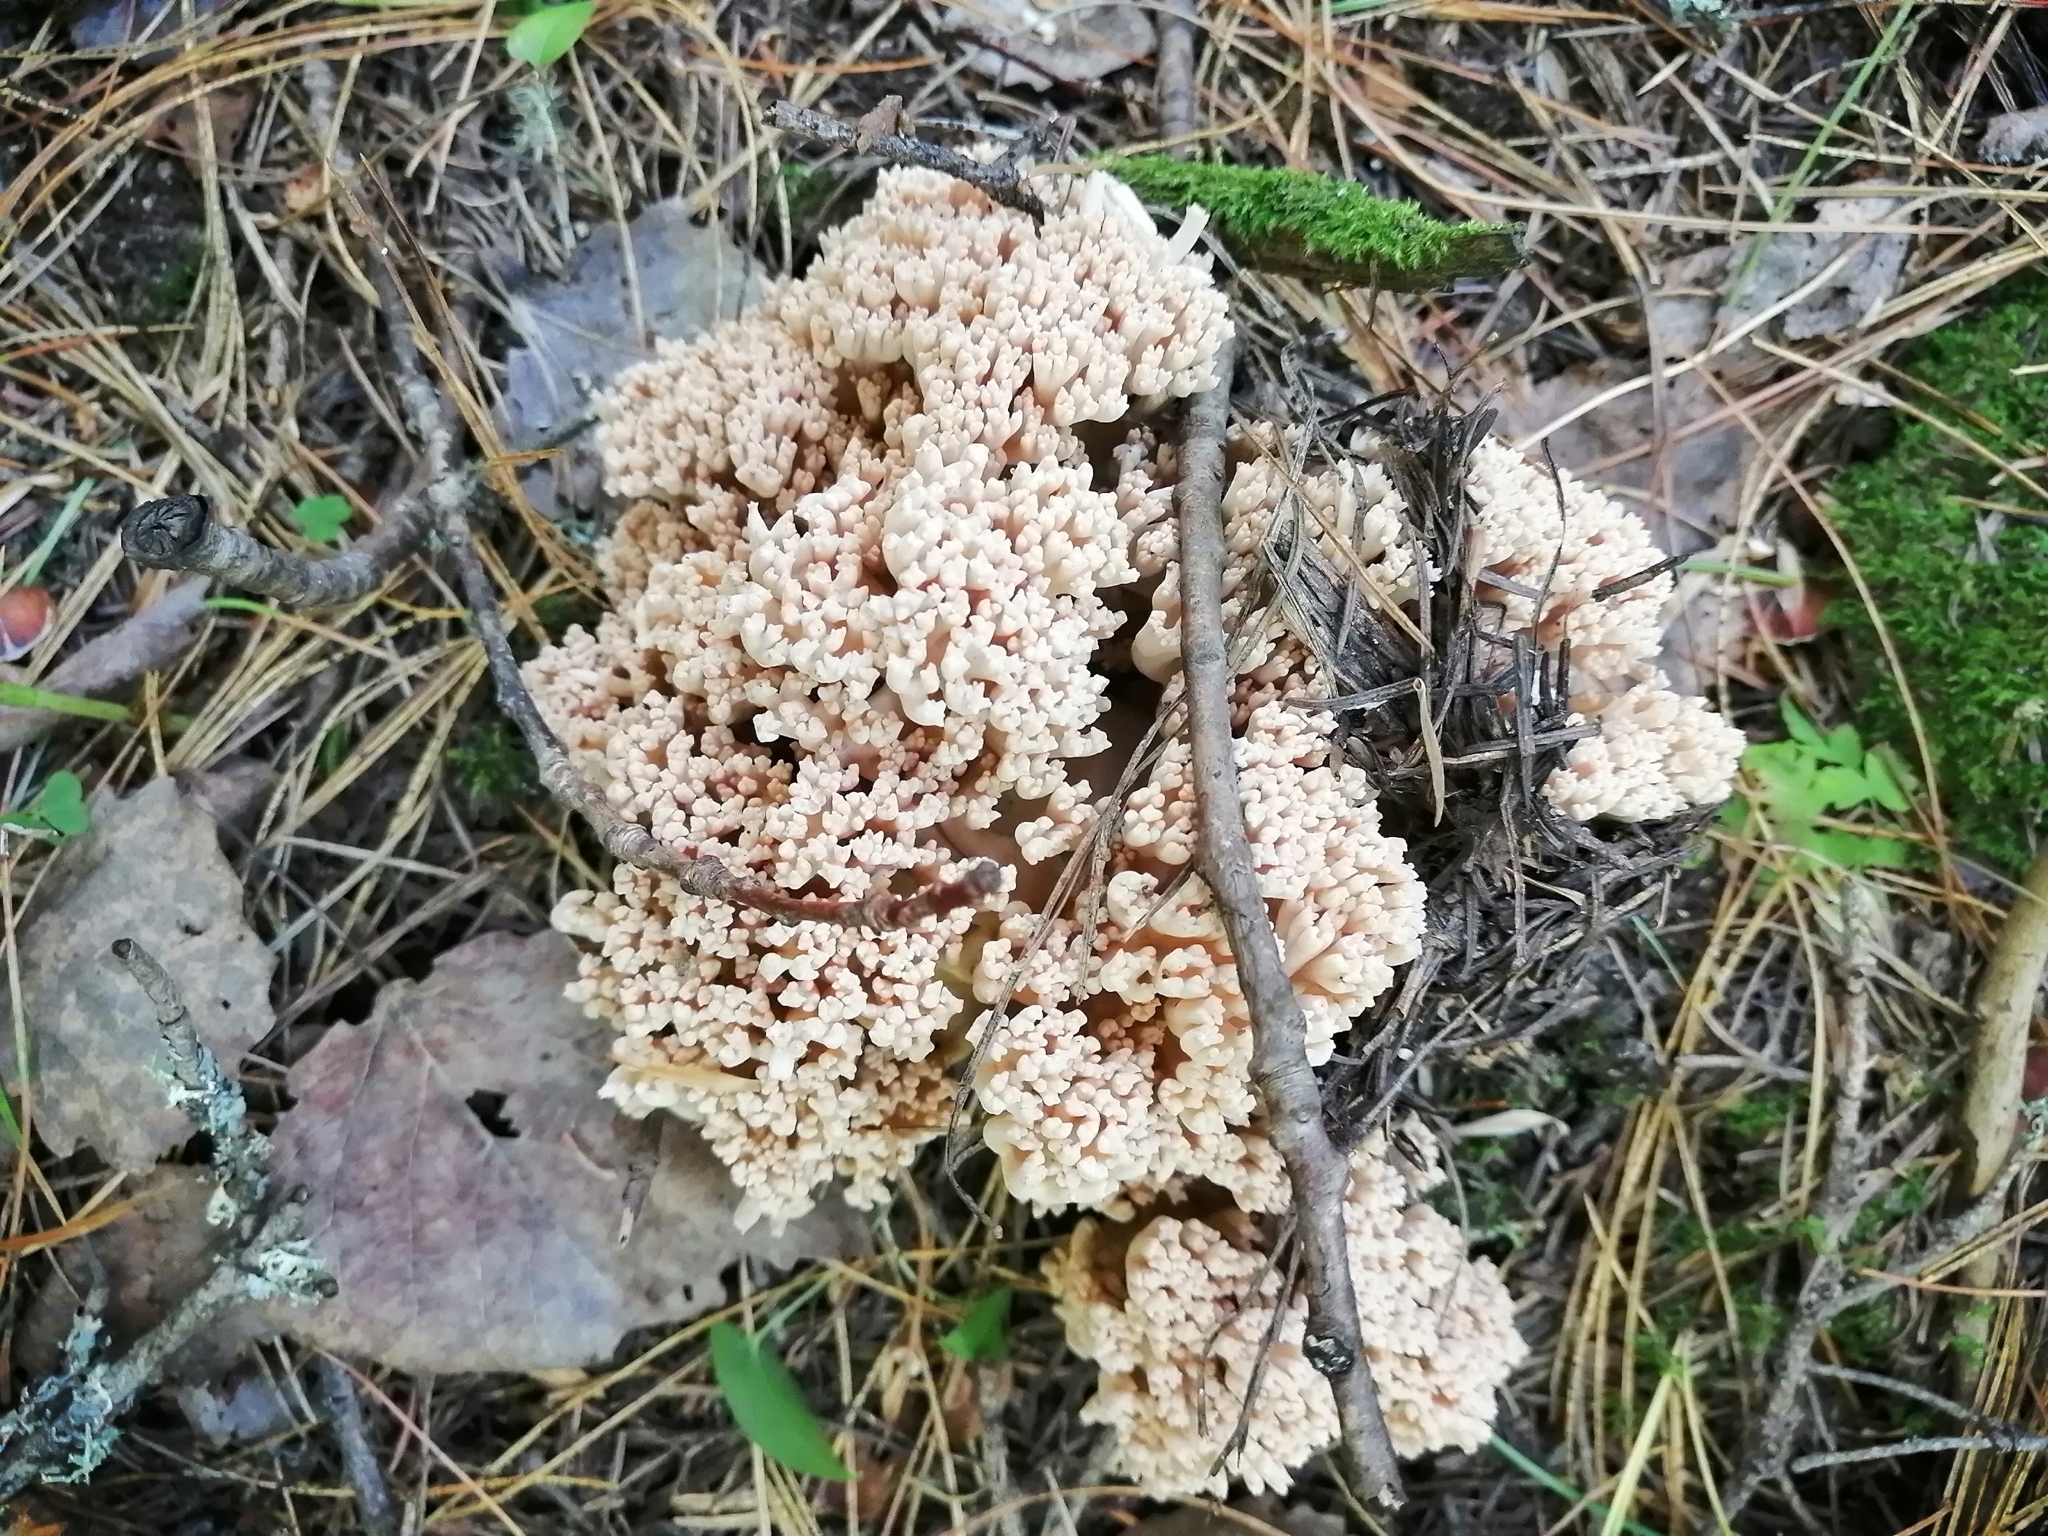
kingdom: Fungi
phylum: Basidiomycota
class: Agaricomycetes
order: Gomphales
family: Gomphaceae
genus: Ramaria
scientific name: Ramaria pallida
